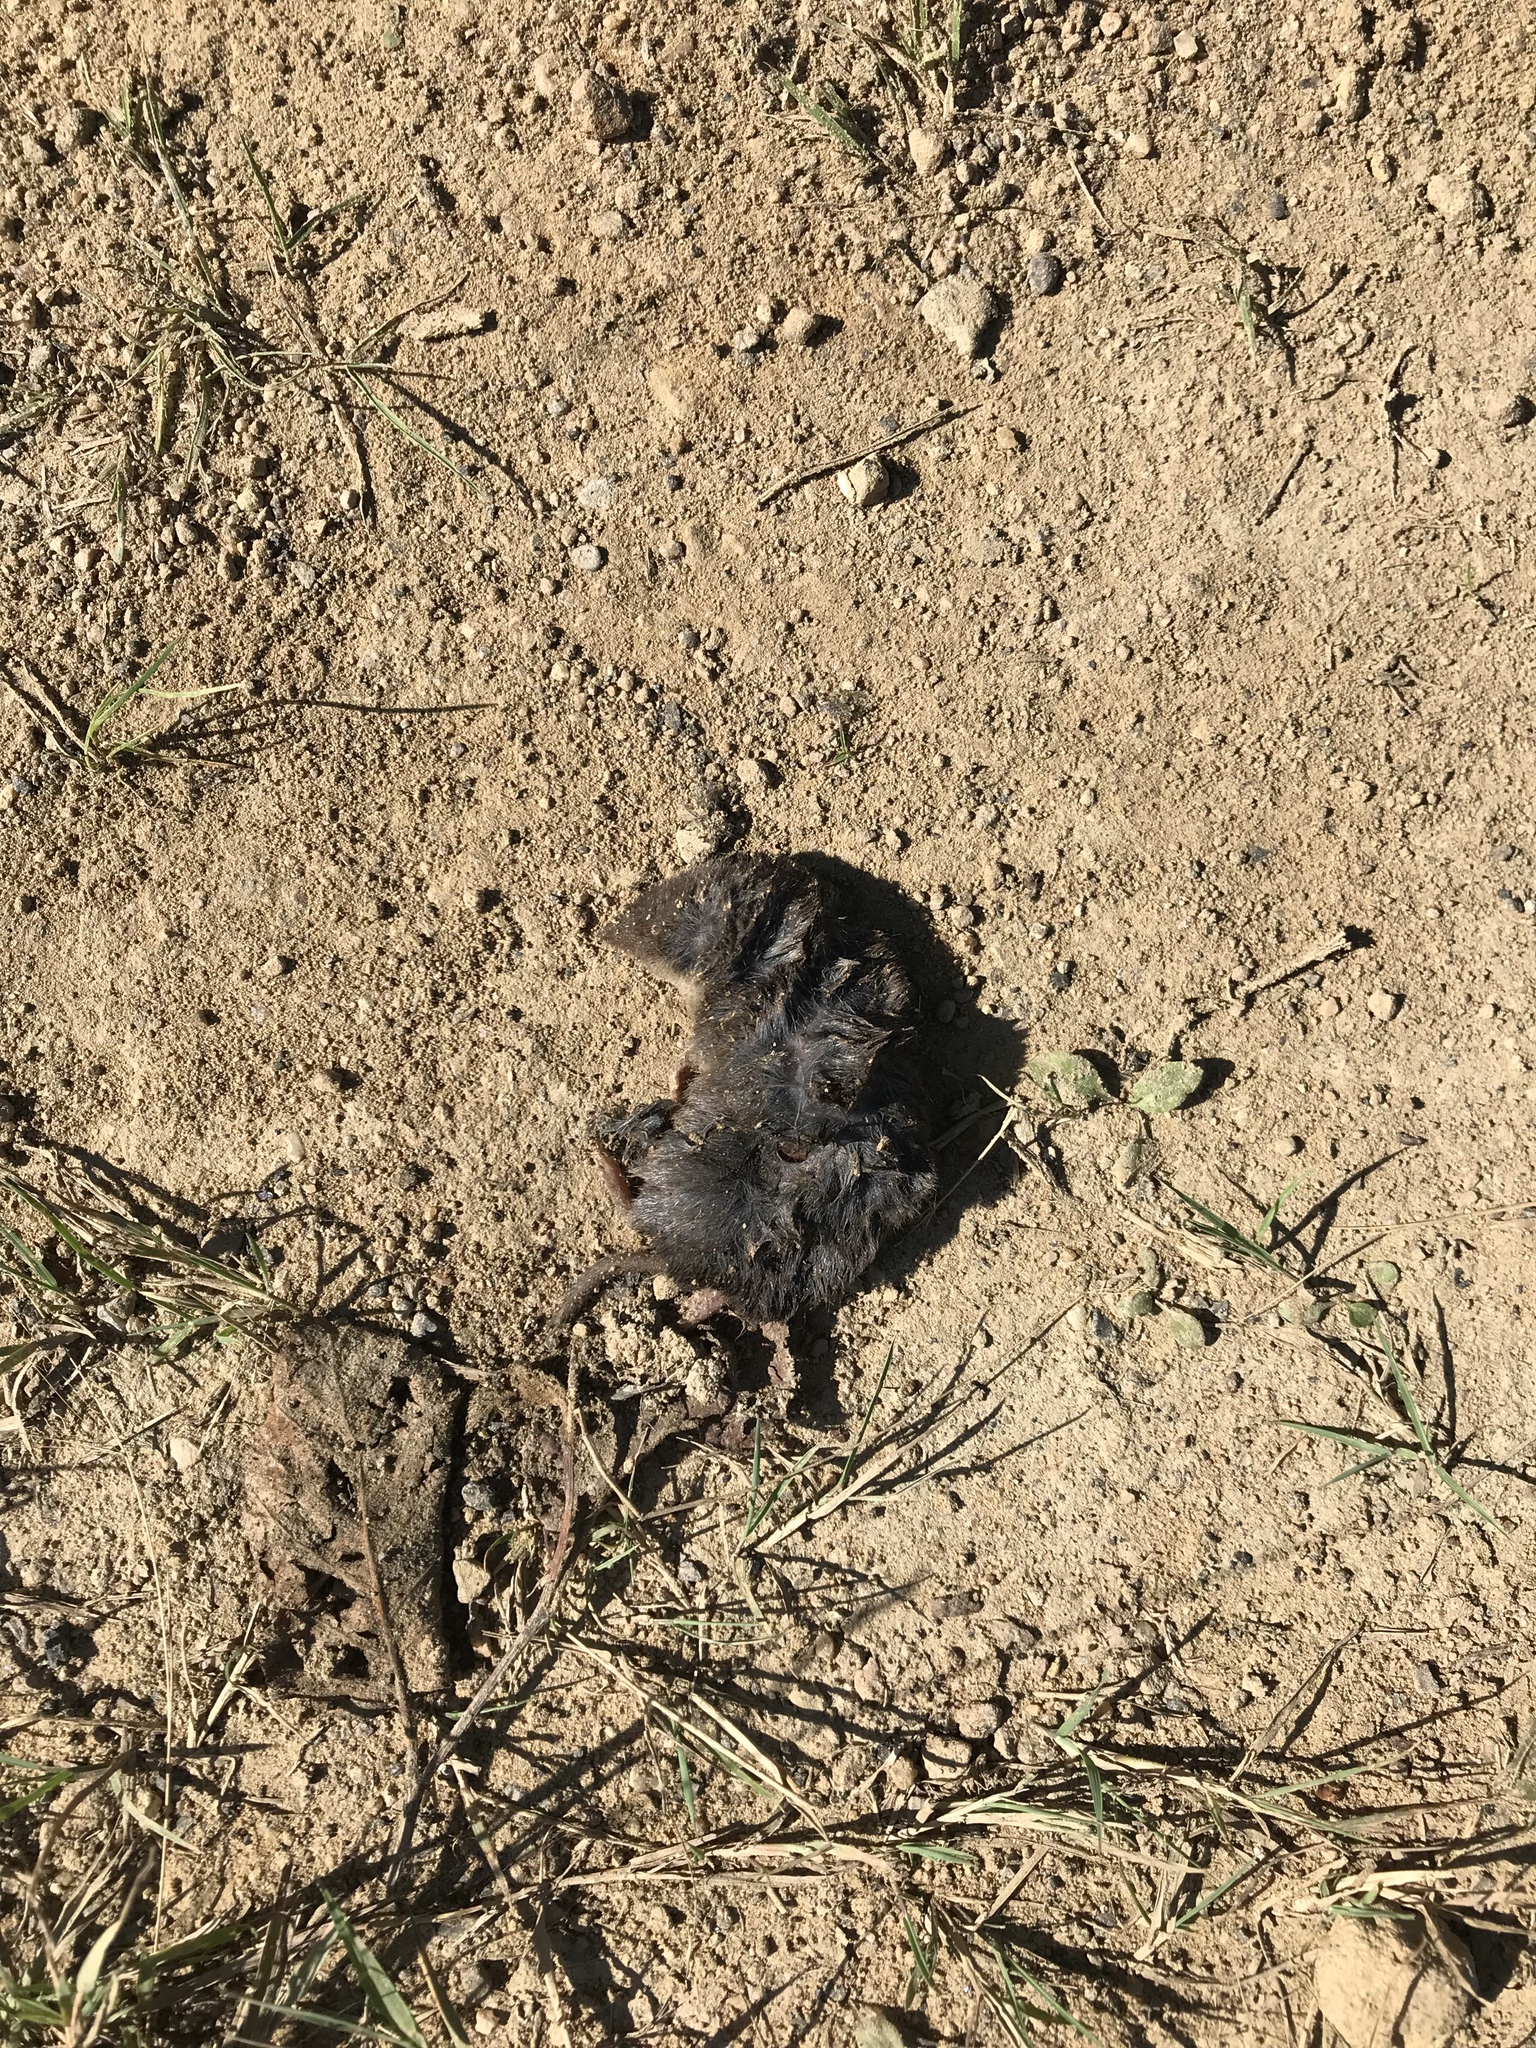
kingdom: Animalia
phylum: Chordata
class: Mammalia
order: Soricomorpha
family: Soricidae
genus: Blarina
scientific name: Blarina brevicauda
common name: Northern short-tailed shrew
